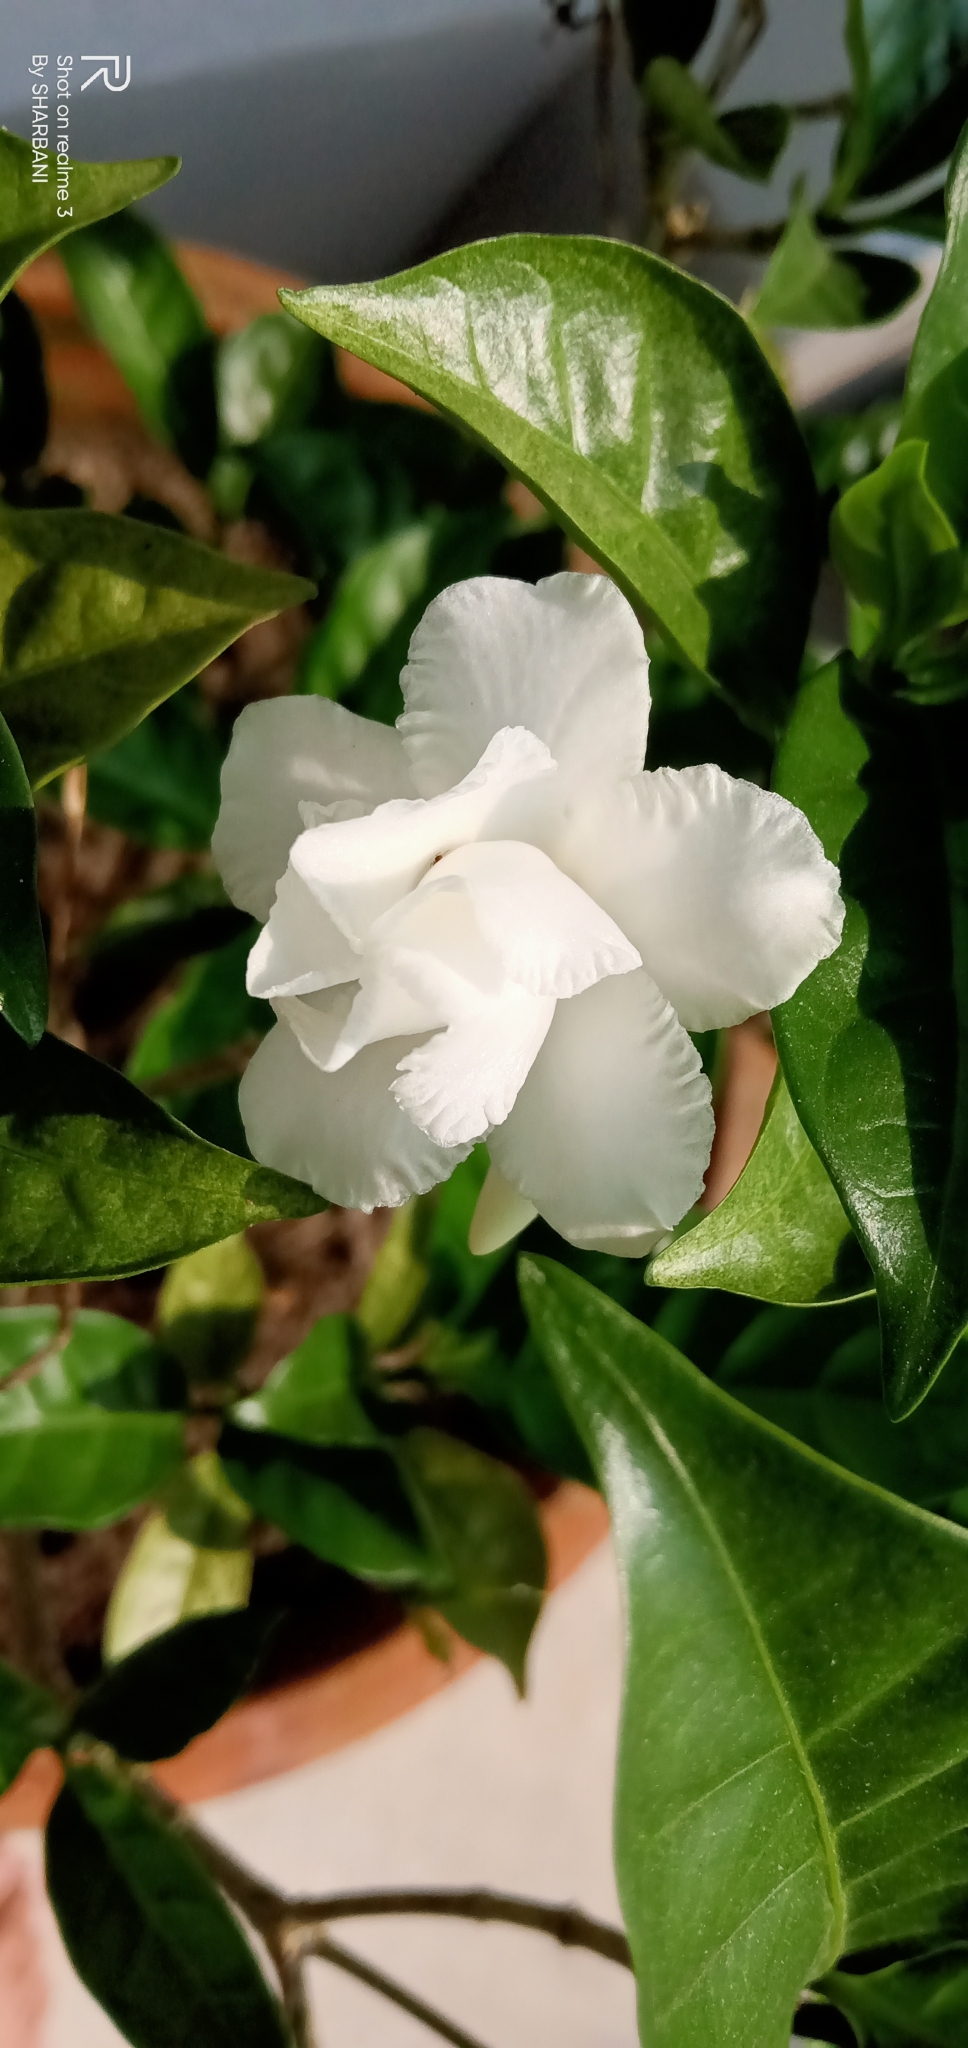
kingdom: Plantae
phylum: Tracheophyta
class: Magnoliopsida
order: Gentianales
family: Apocynaceae
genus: Tabernaemontana
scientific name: Tabernaemontana divaricata
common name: Pinwheelflower
